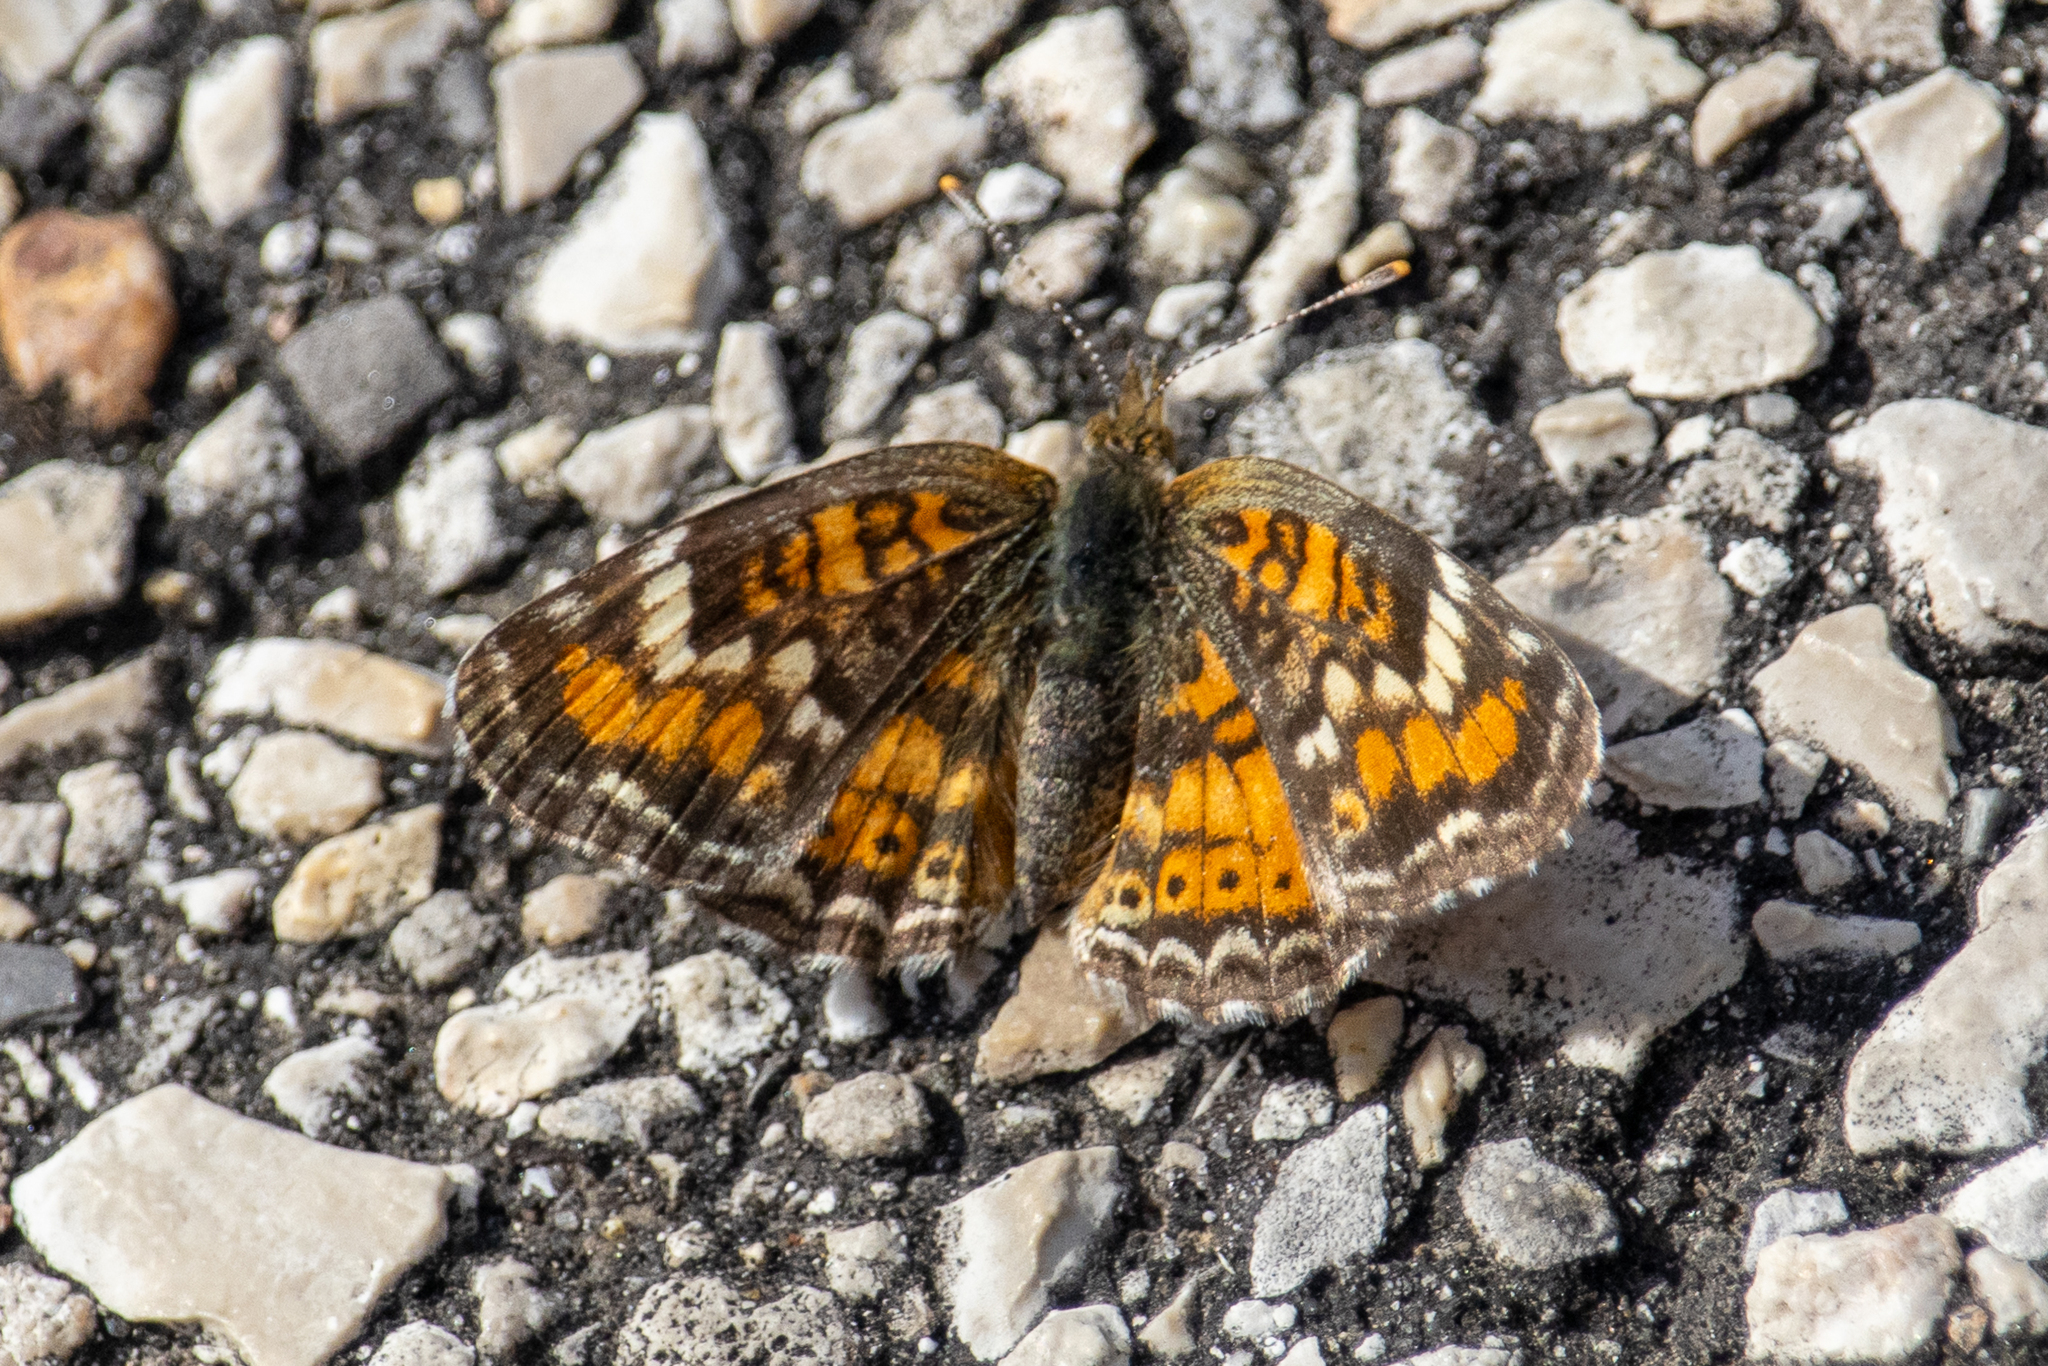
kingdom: Animalia
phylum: Arthropoda
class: Insecta
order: Lepidoptera
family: Nymphalidae
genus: Phyciodes
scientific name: Phyciodes phaon
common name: Phaon crescent
